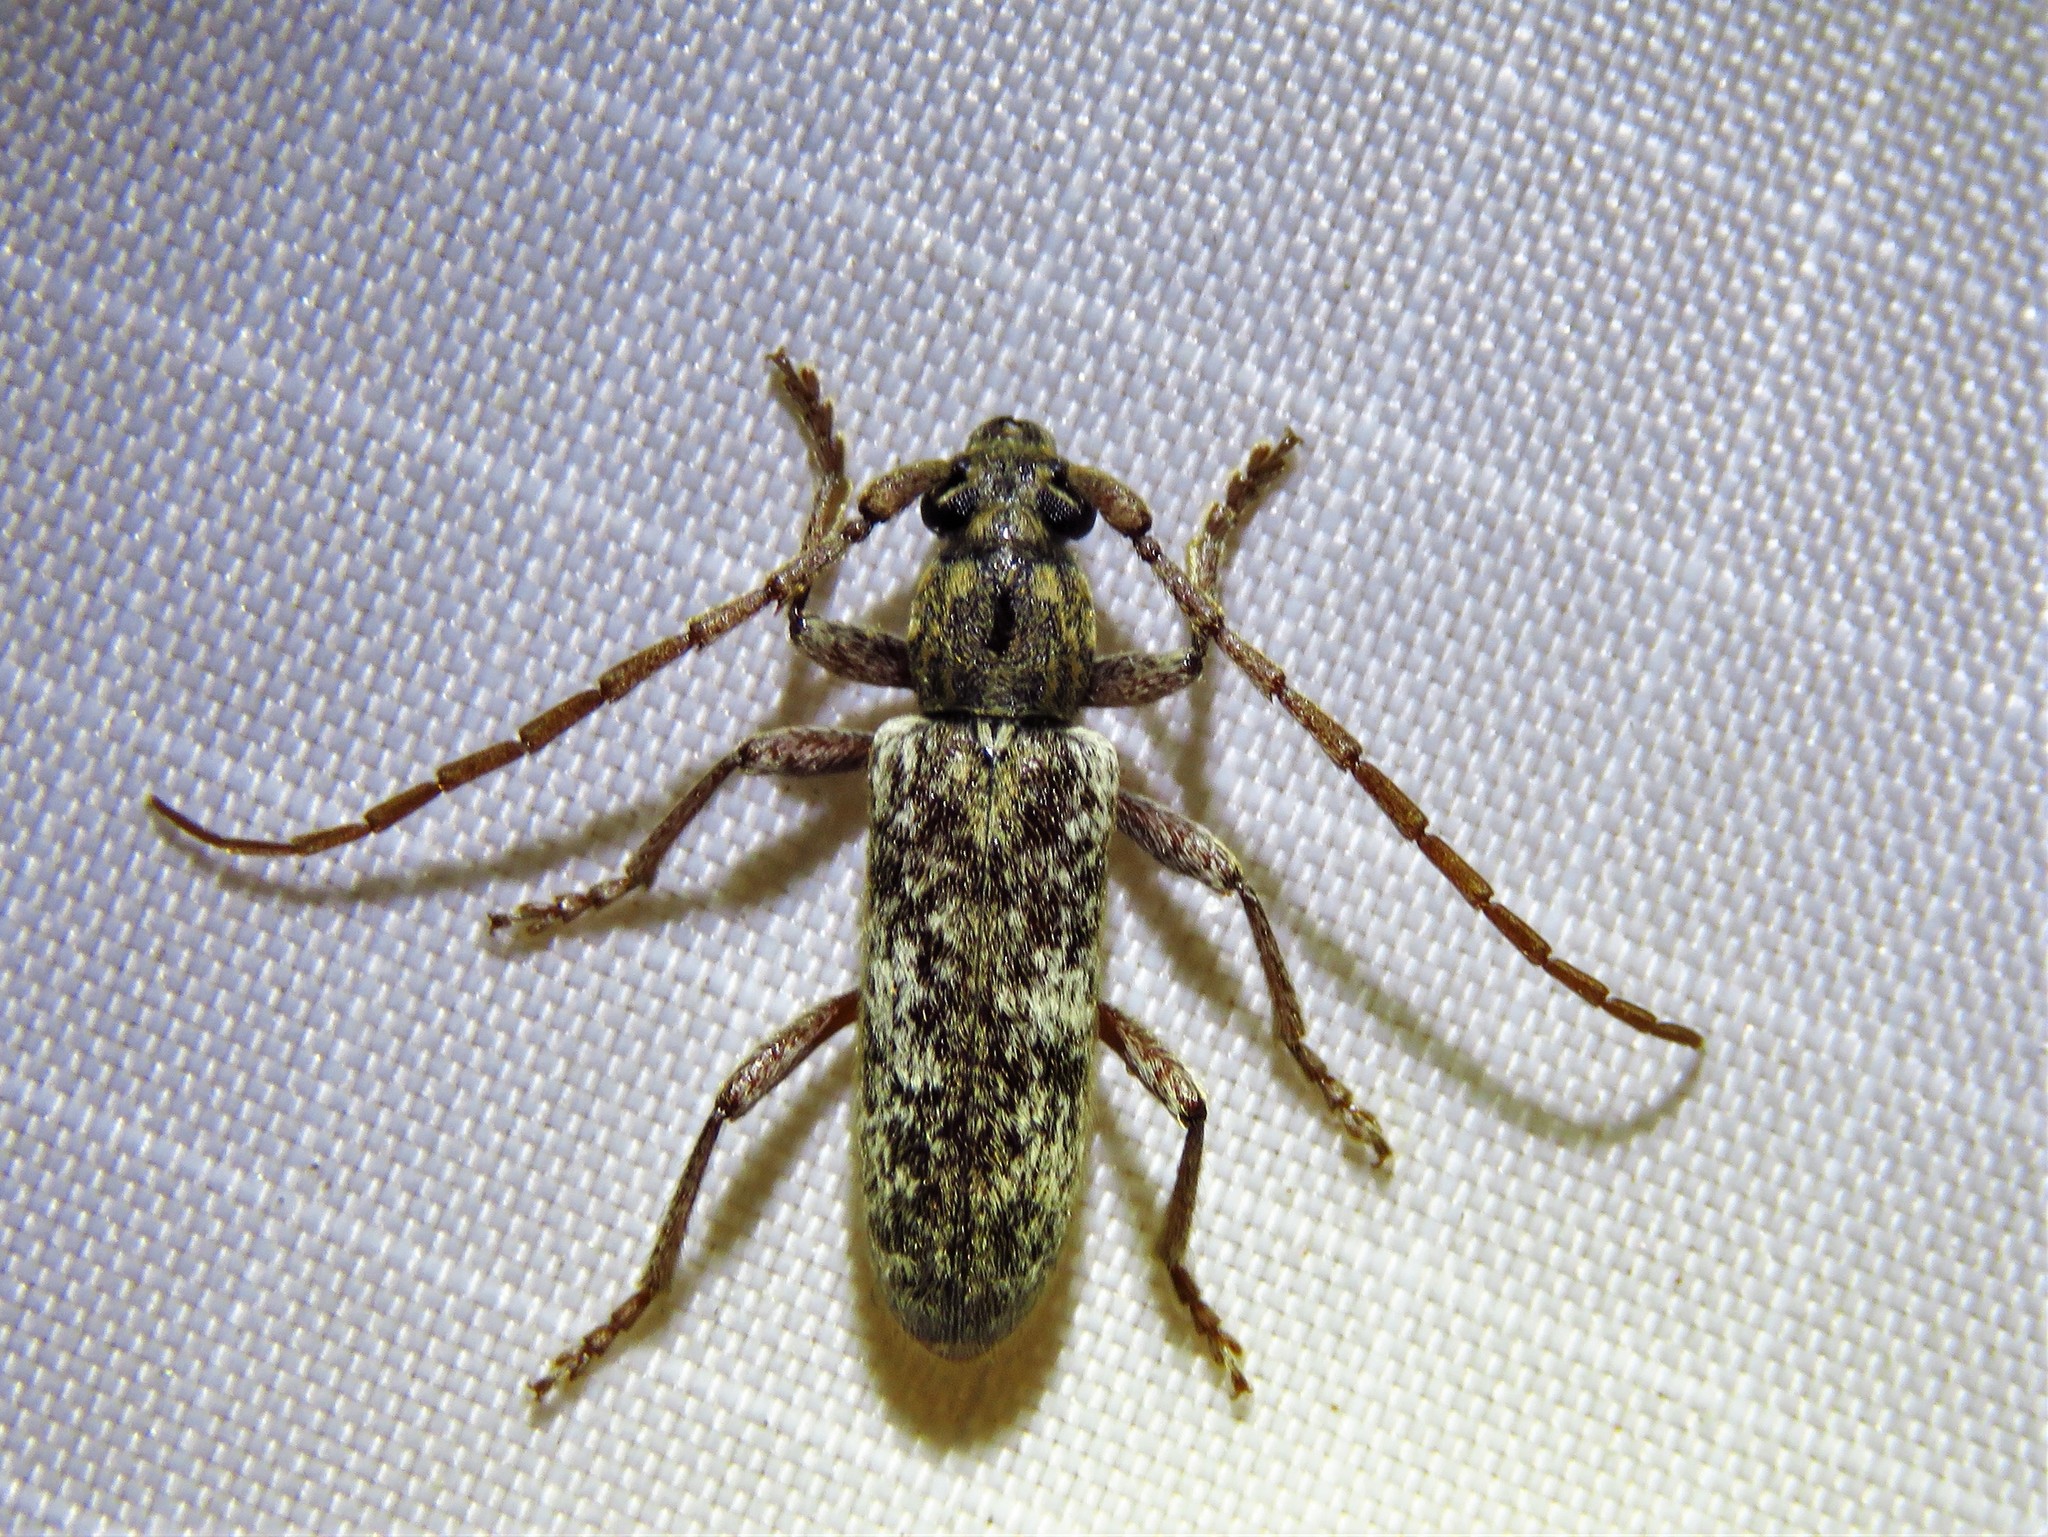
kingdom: Animalia
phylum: Arthropoda
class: Insecta
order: Coleoptera
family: Cerambycidae
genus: Anelaphus
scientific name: Anelaphus debilis
